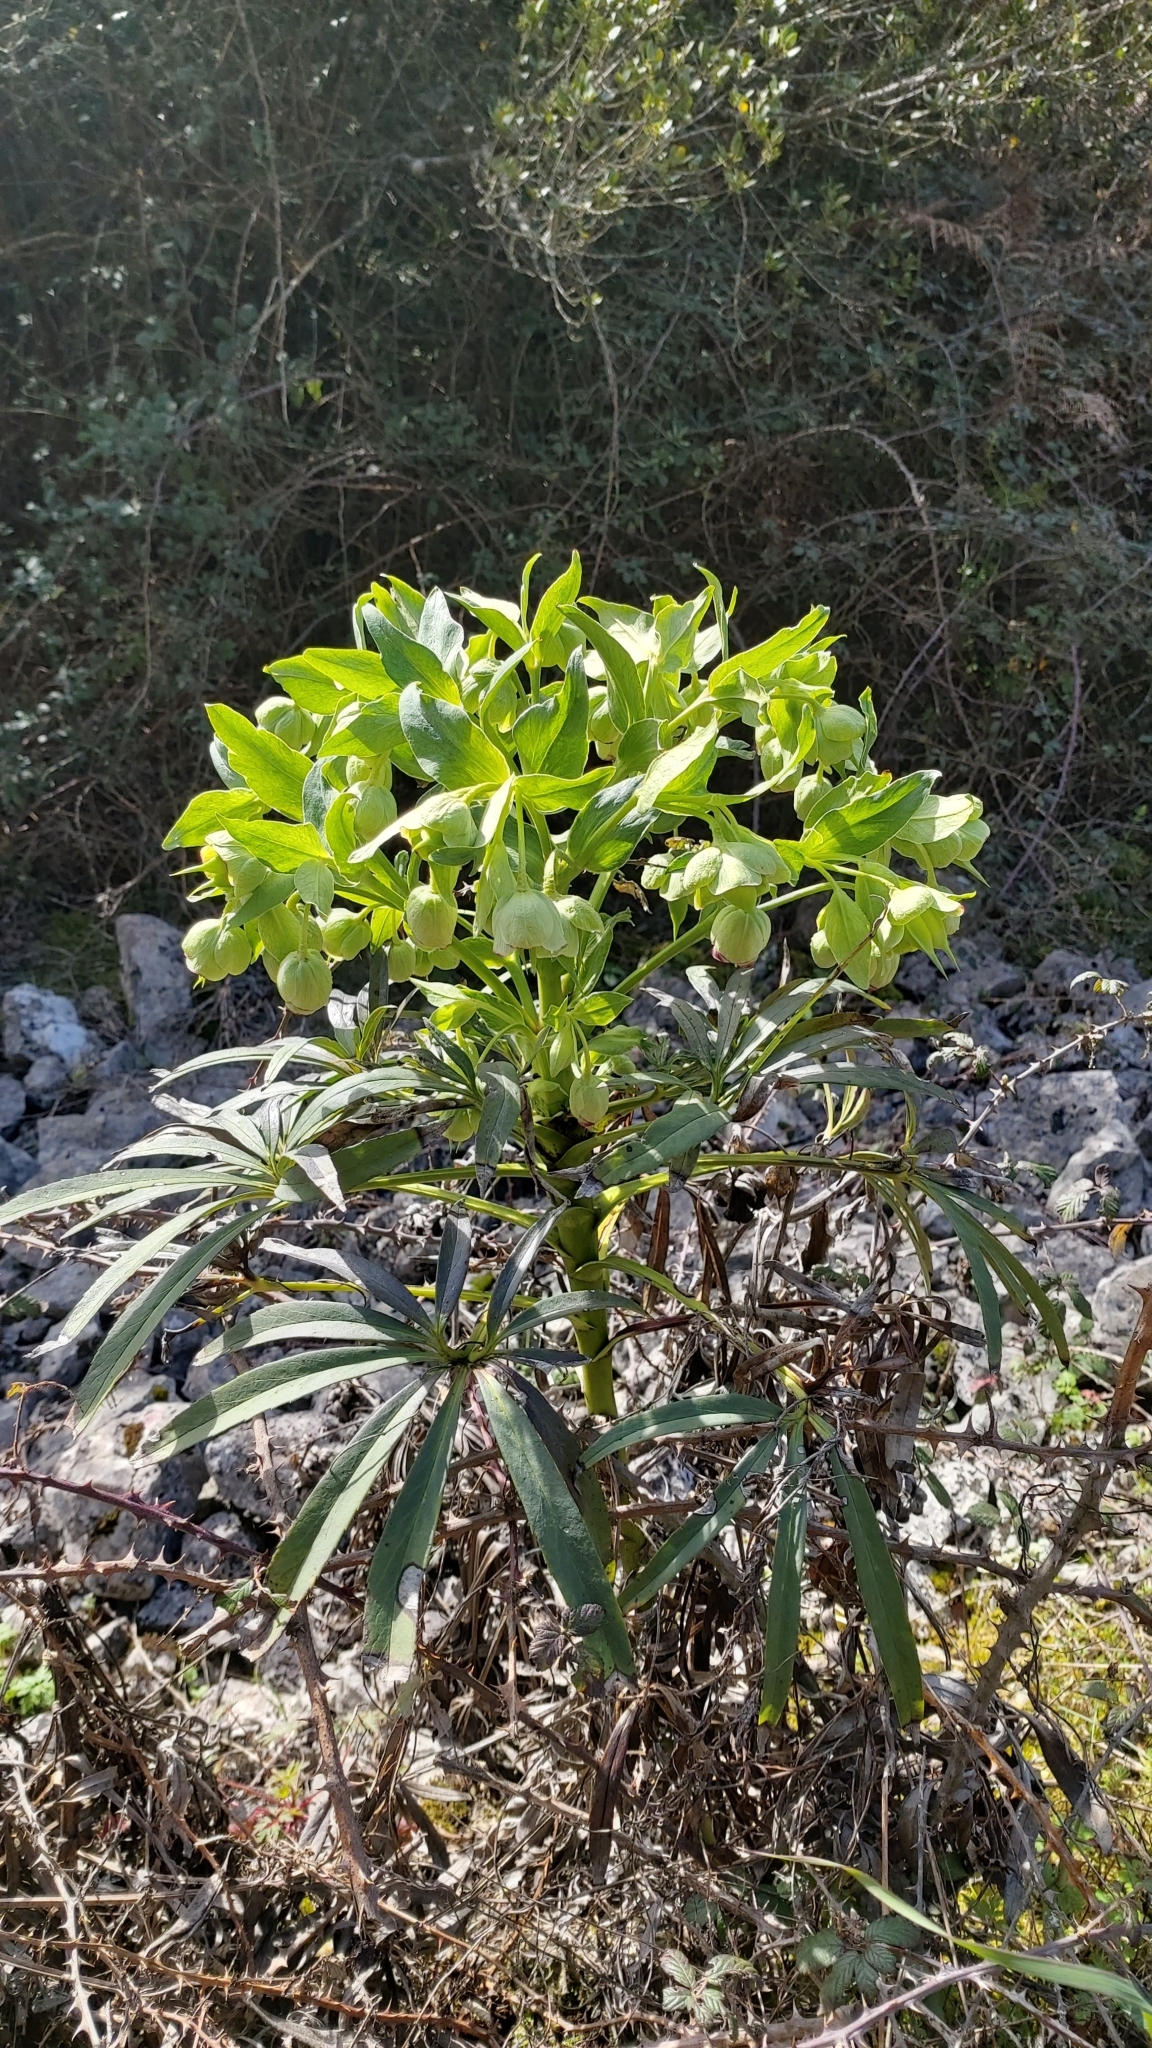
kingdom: Plantae
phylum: Tracheophyta
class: Magnoliopsida
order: Ranunculales
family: Ranunculaceae
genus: Helleborus
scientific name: Helleborus foetidus
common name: Stinking hellebore
